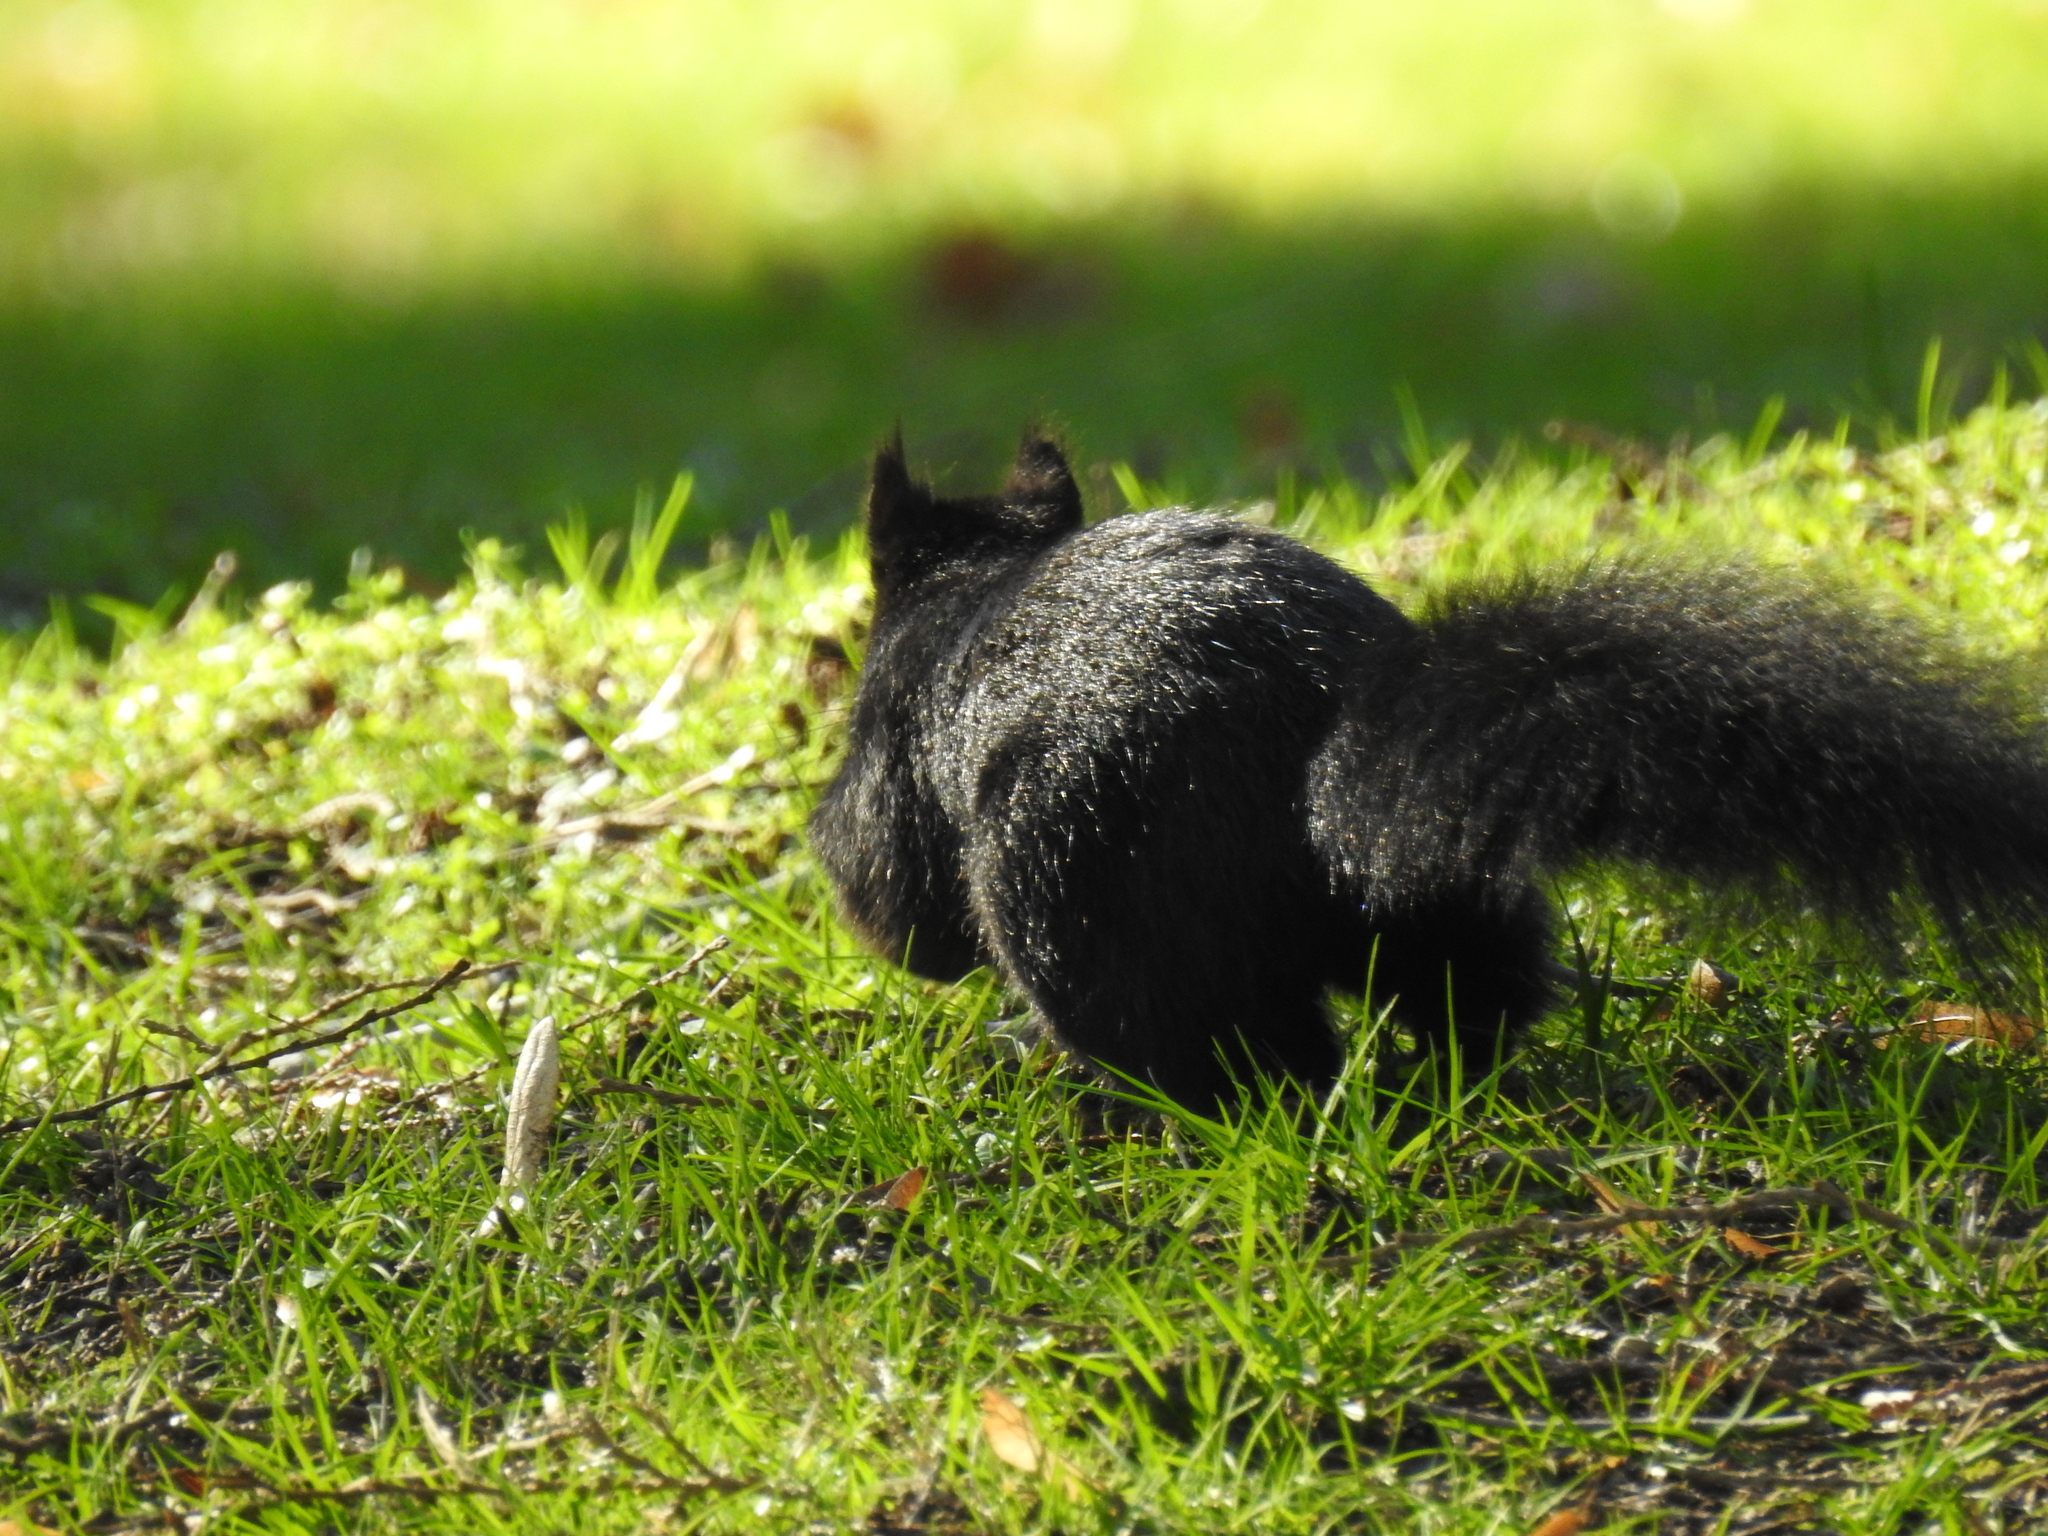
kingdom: Animalia
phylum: Chordata
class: Mammalia
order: Rodentia
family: Sciuridae
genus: Sciurus
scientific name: Sciurus carolinensis
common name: Eastern gray squirrel
